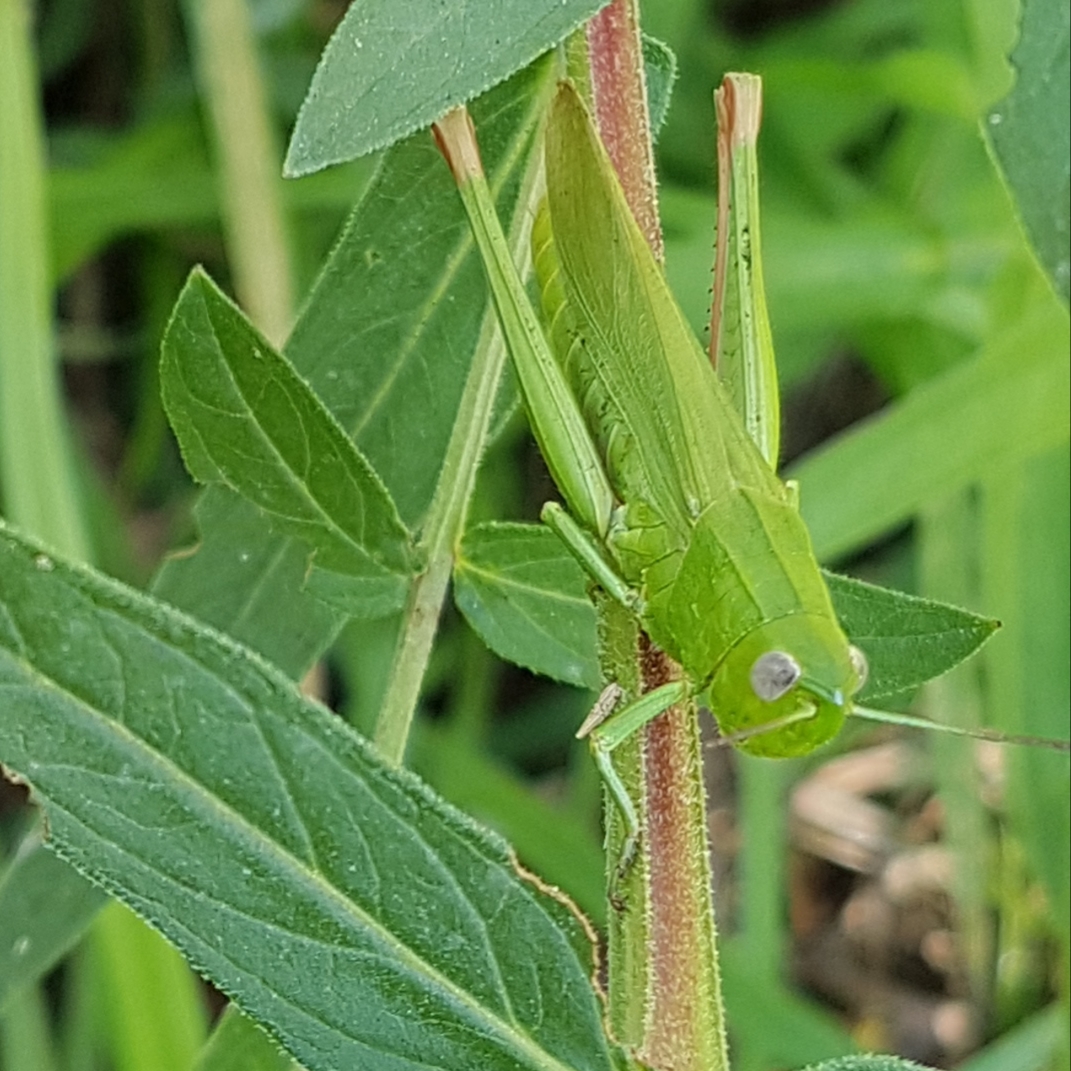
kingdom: Animalia
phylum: Arthropoda
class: Insecta
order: Orthoptera
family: Acrididae
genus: Chorthippus
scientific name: Chorthippus jucundus
